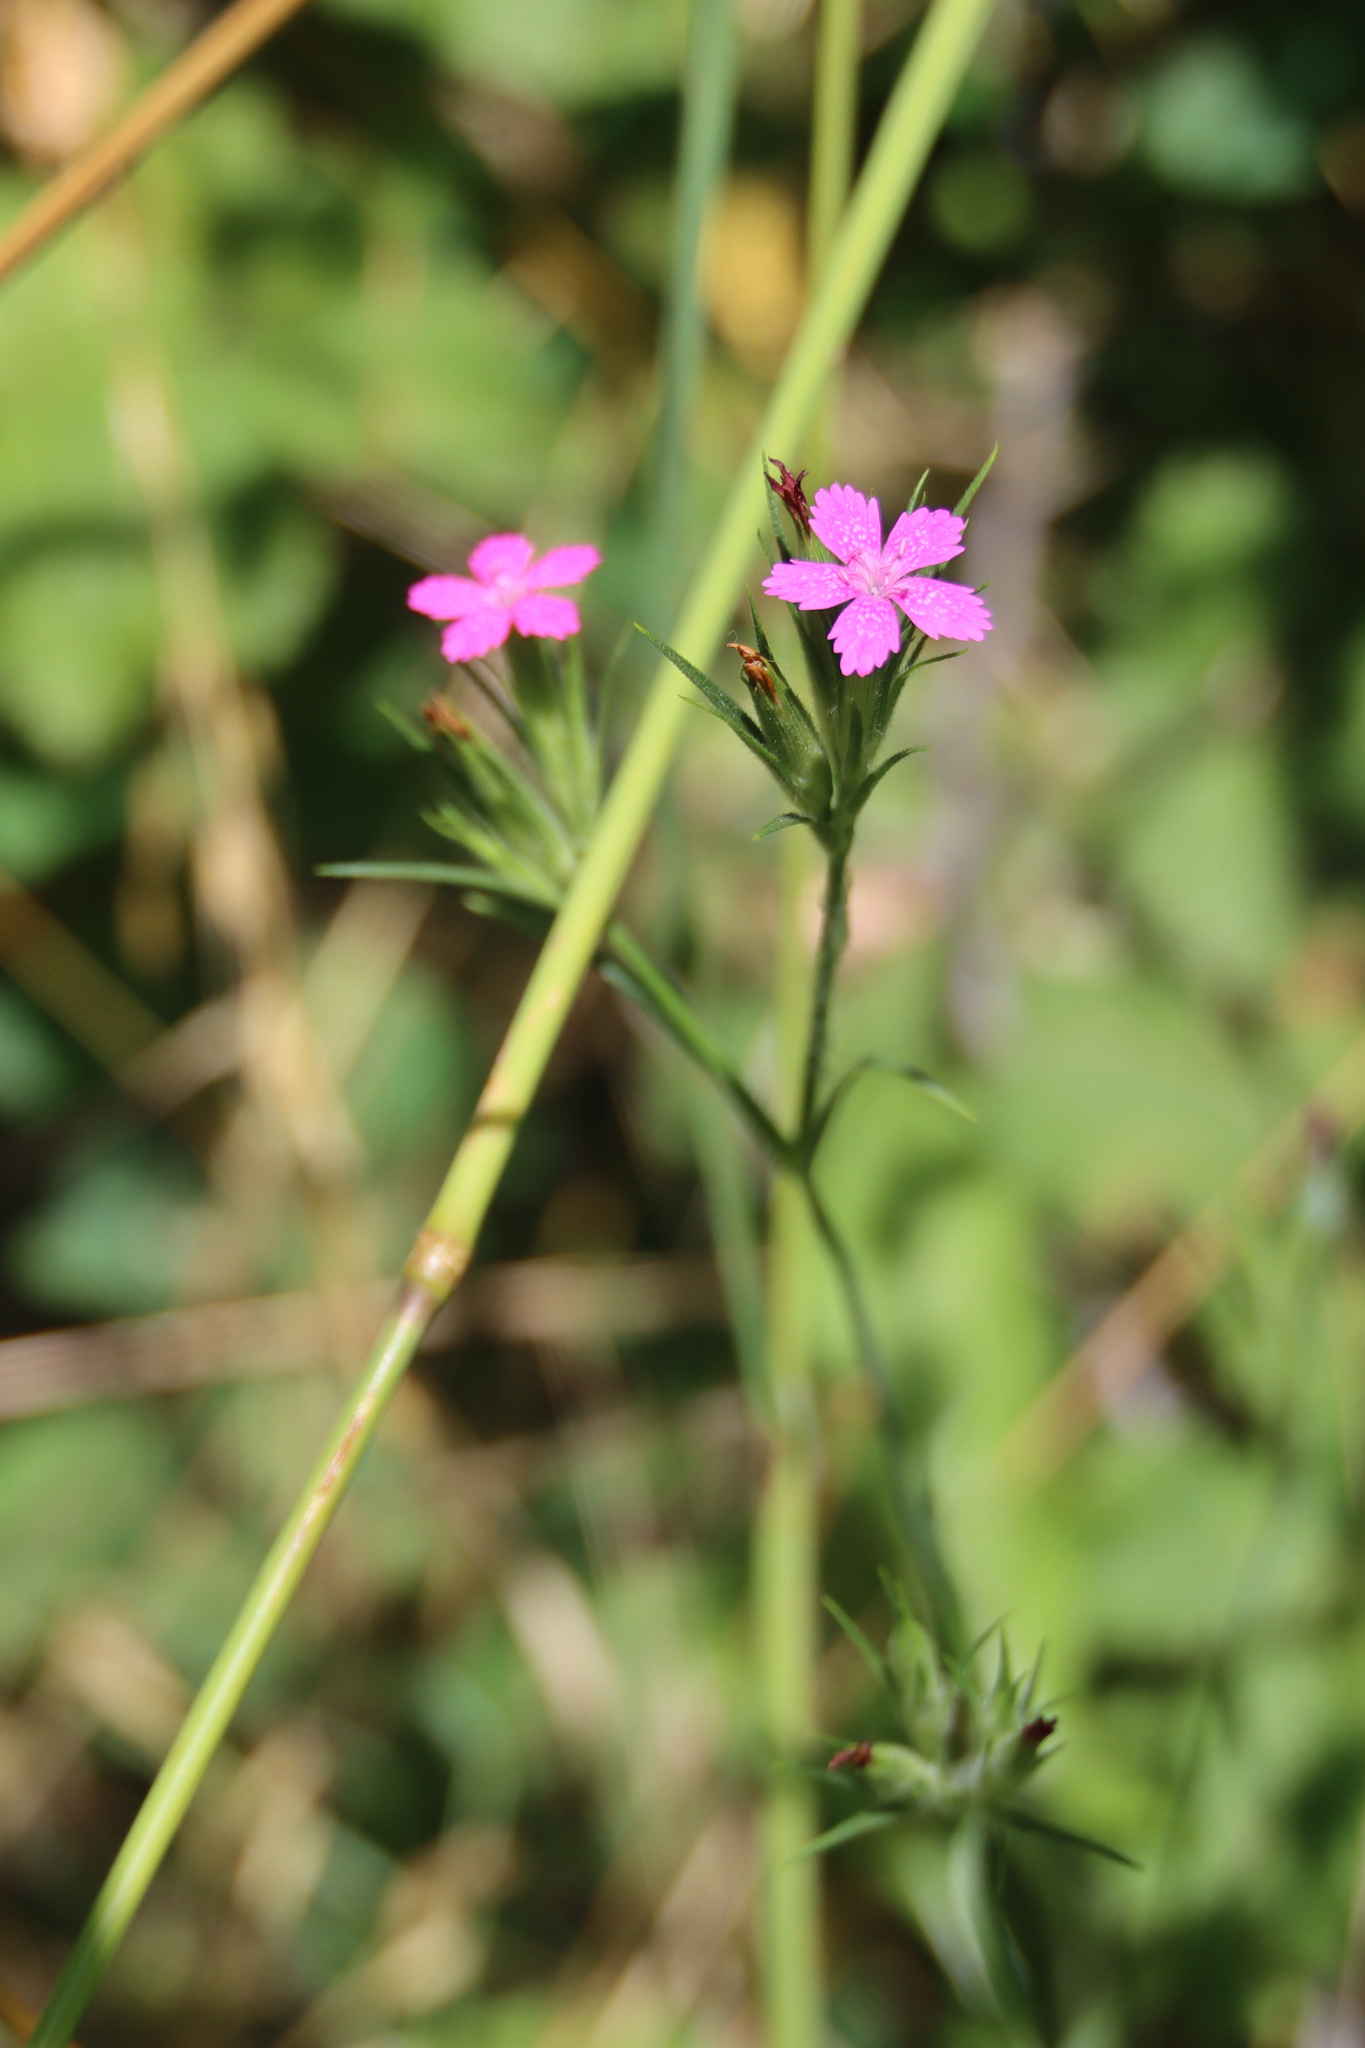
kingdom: Plantae
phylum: Tracheophyta
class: Magnoliopsida
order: Caryophyllales
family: Caryophyllaceae
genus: Dianthus
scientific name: Dianthus armeria
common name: Deptford pink
